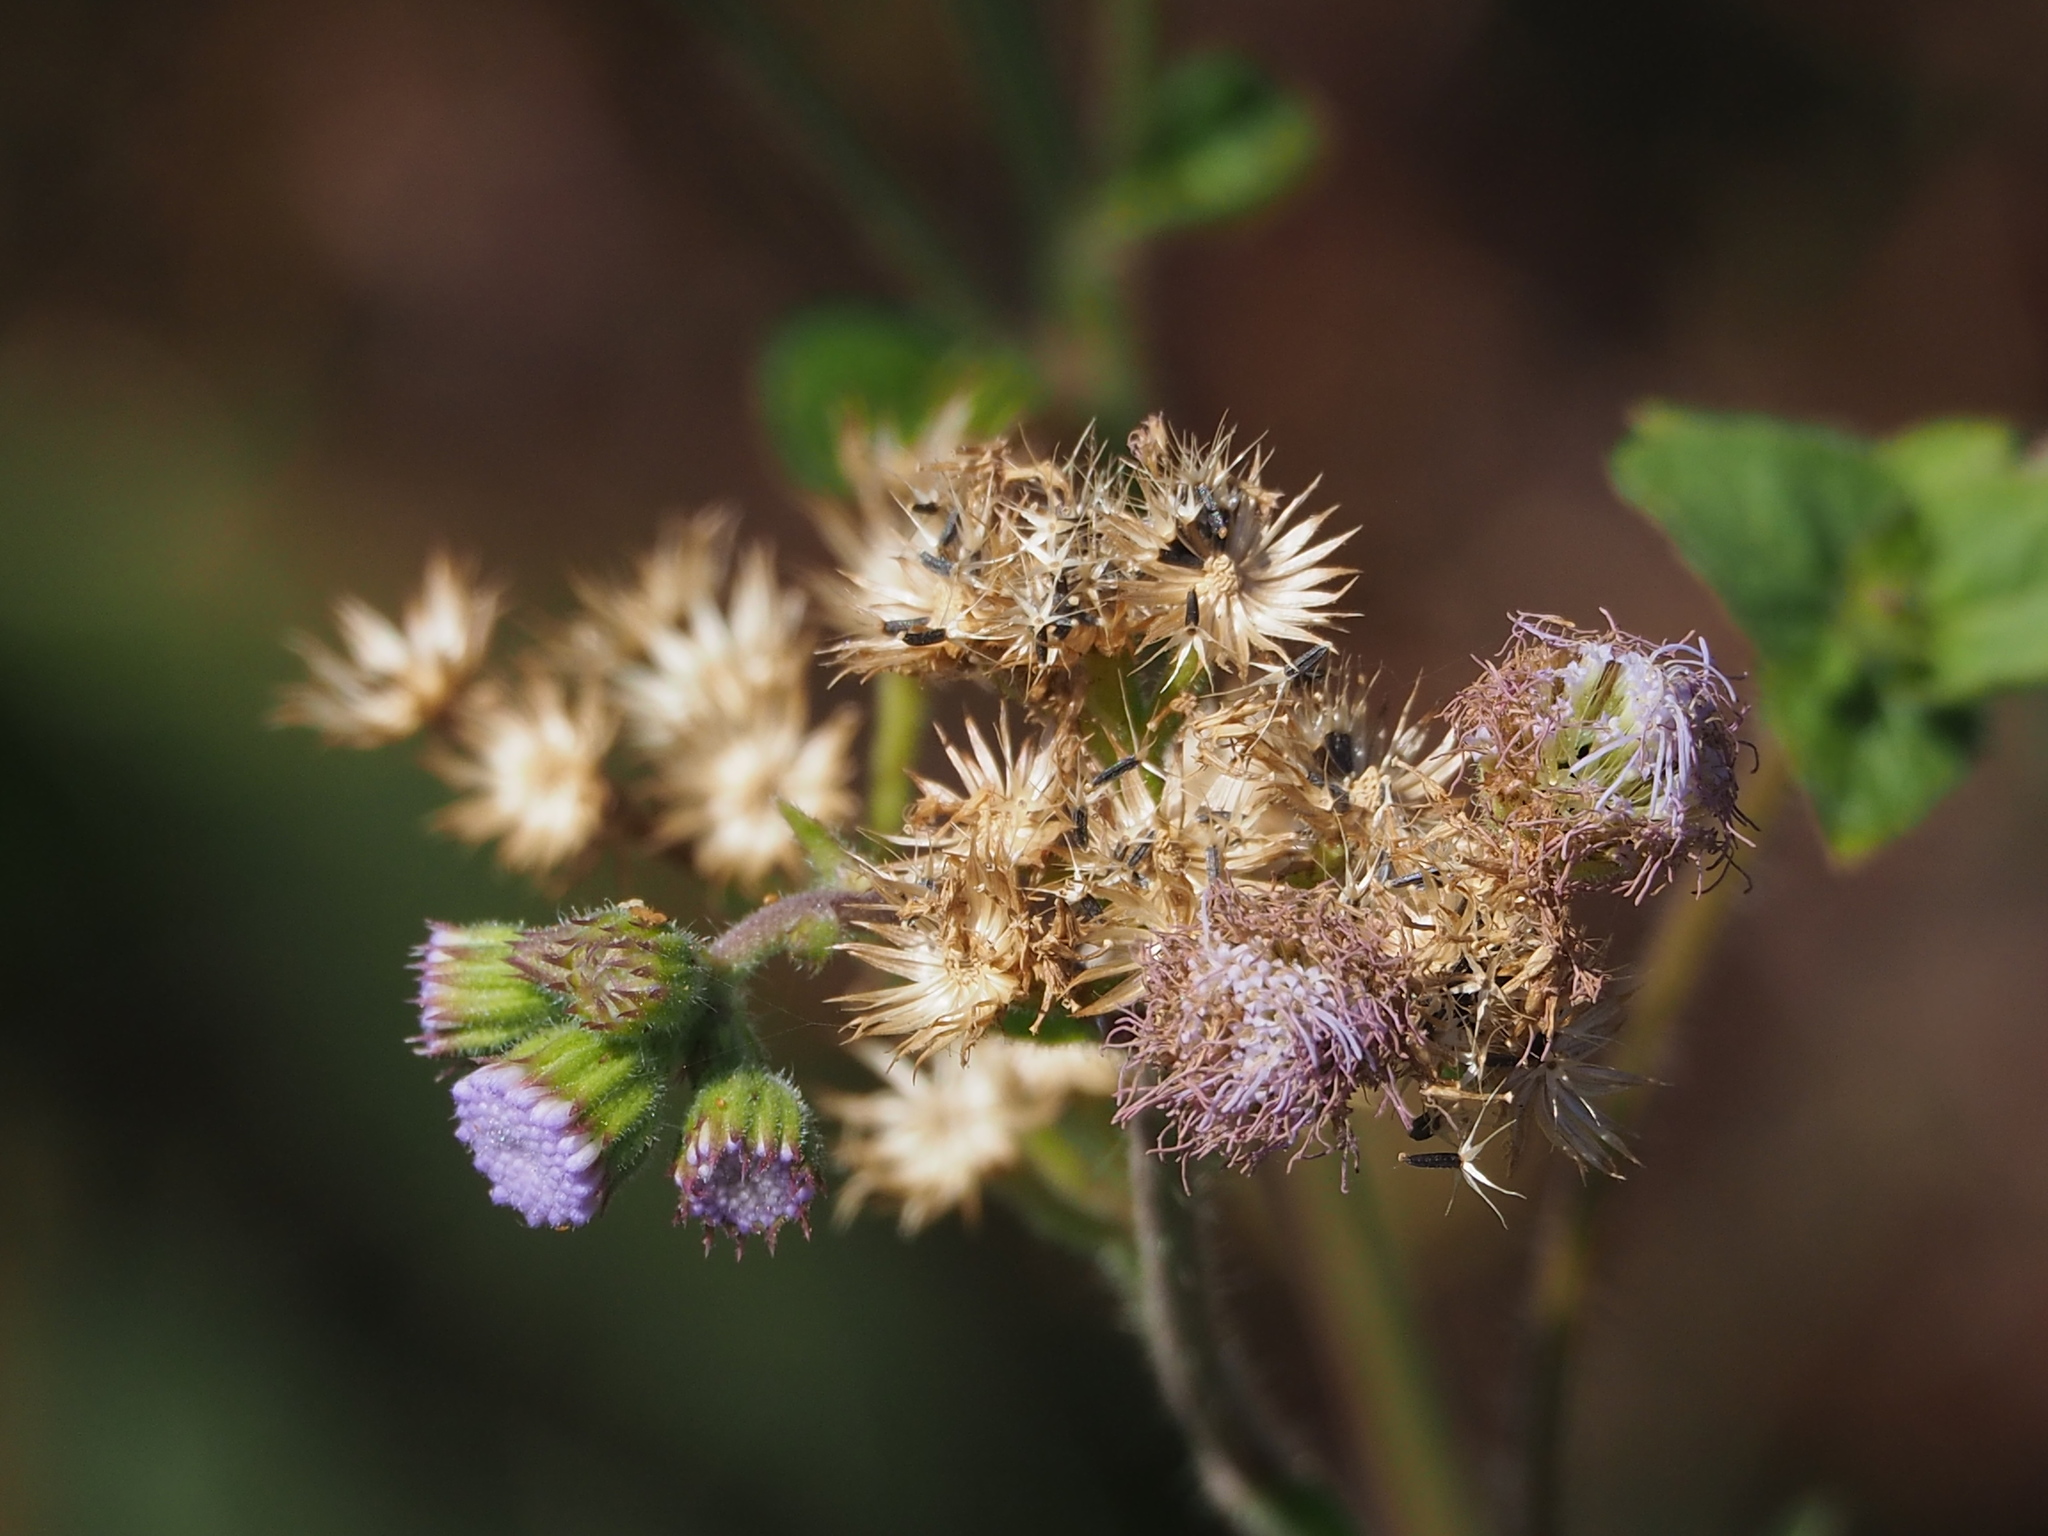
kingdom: Plantae
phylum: Tracheophyta
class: Magnoliopsida
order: Asterales
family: Asteraceae
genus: Ageratum
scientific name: Ageratum houstonianum
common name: Bluemink
